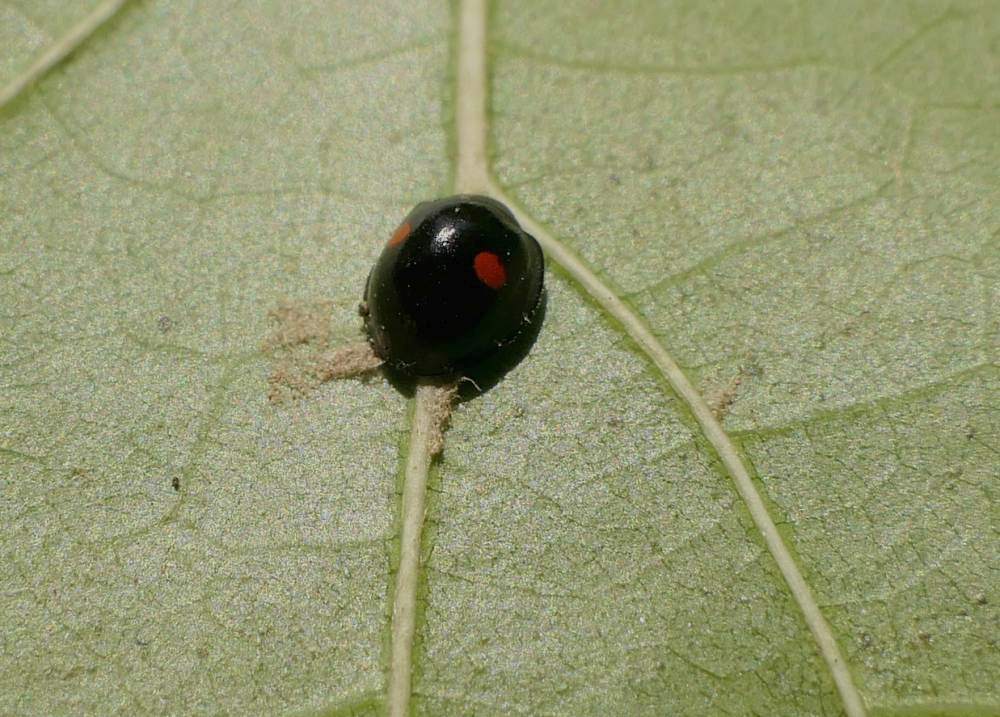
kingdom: Animalia
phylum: Arthropoda
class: Insecta
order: Coleoptera
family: Coccinellidae
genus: Chilocorus
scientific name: Chilocorus stigma
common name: Twicestabbed lady beetle
